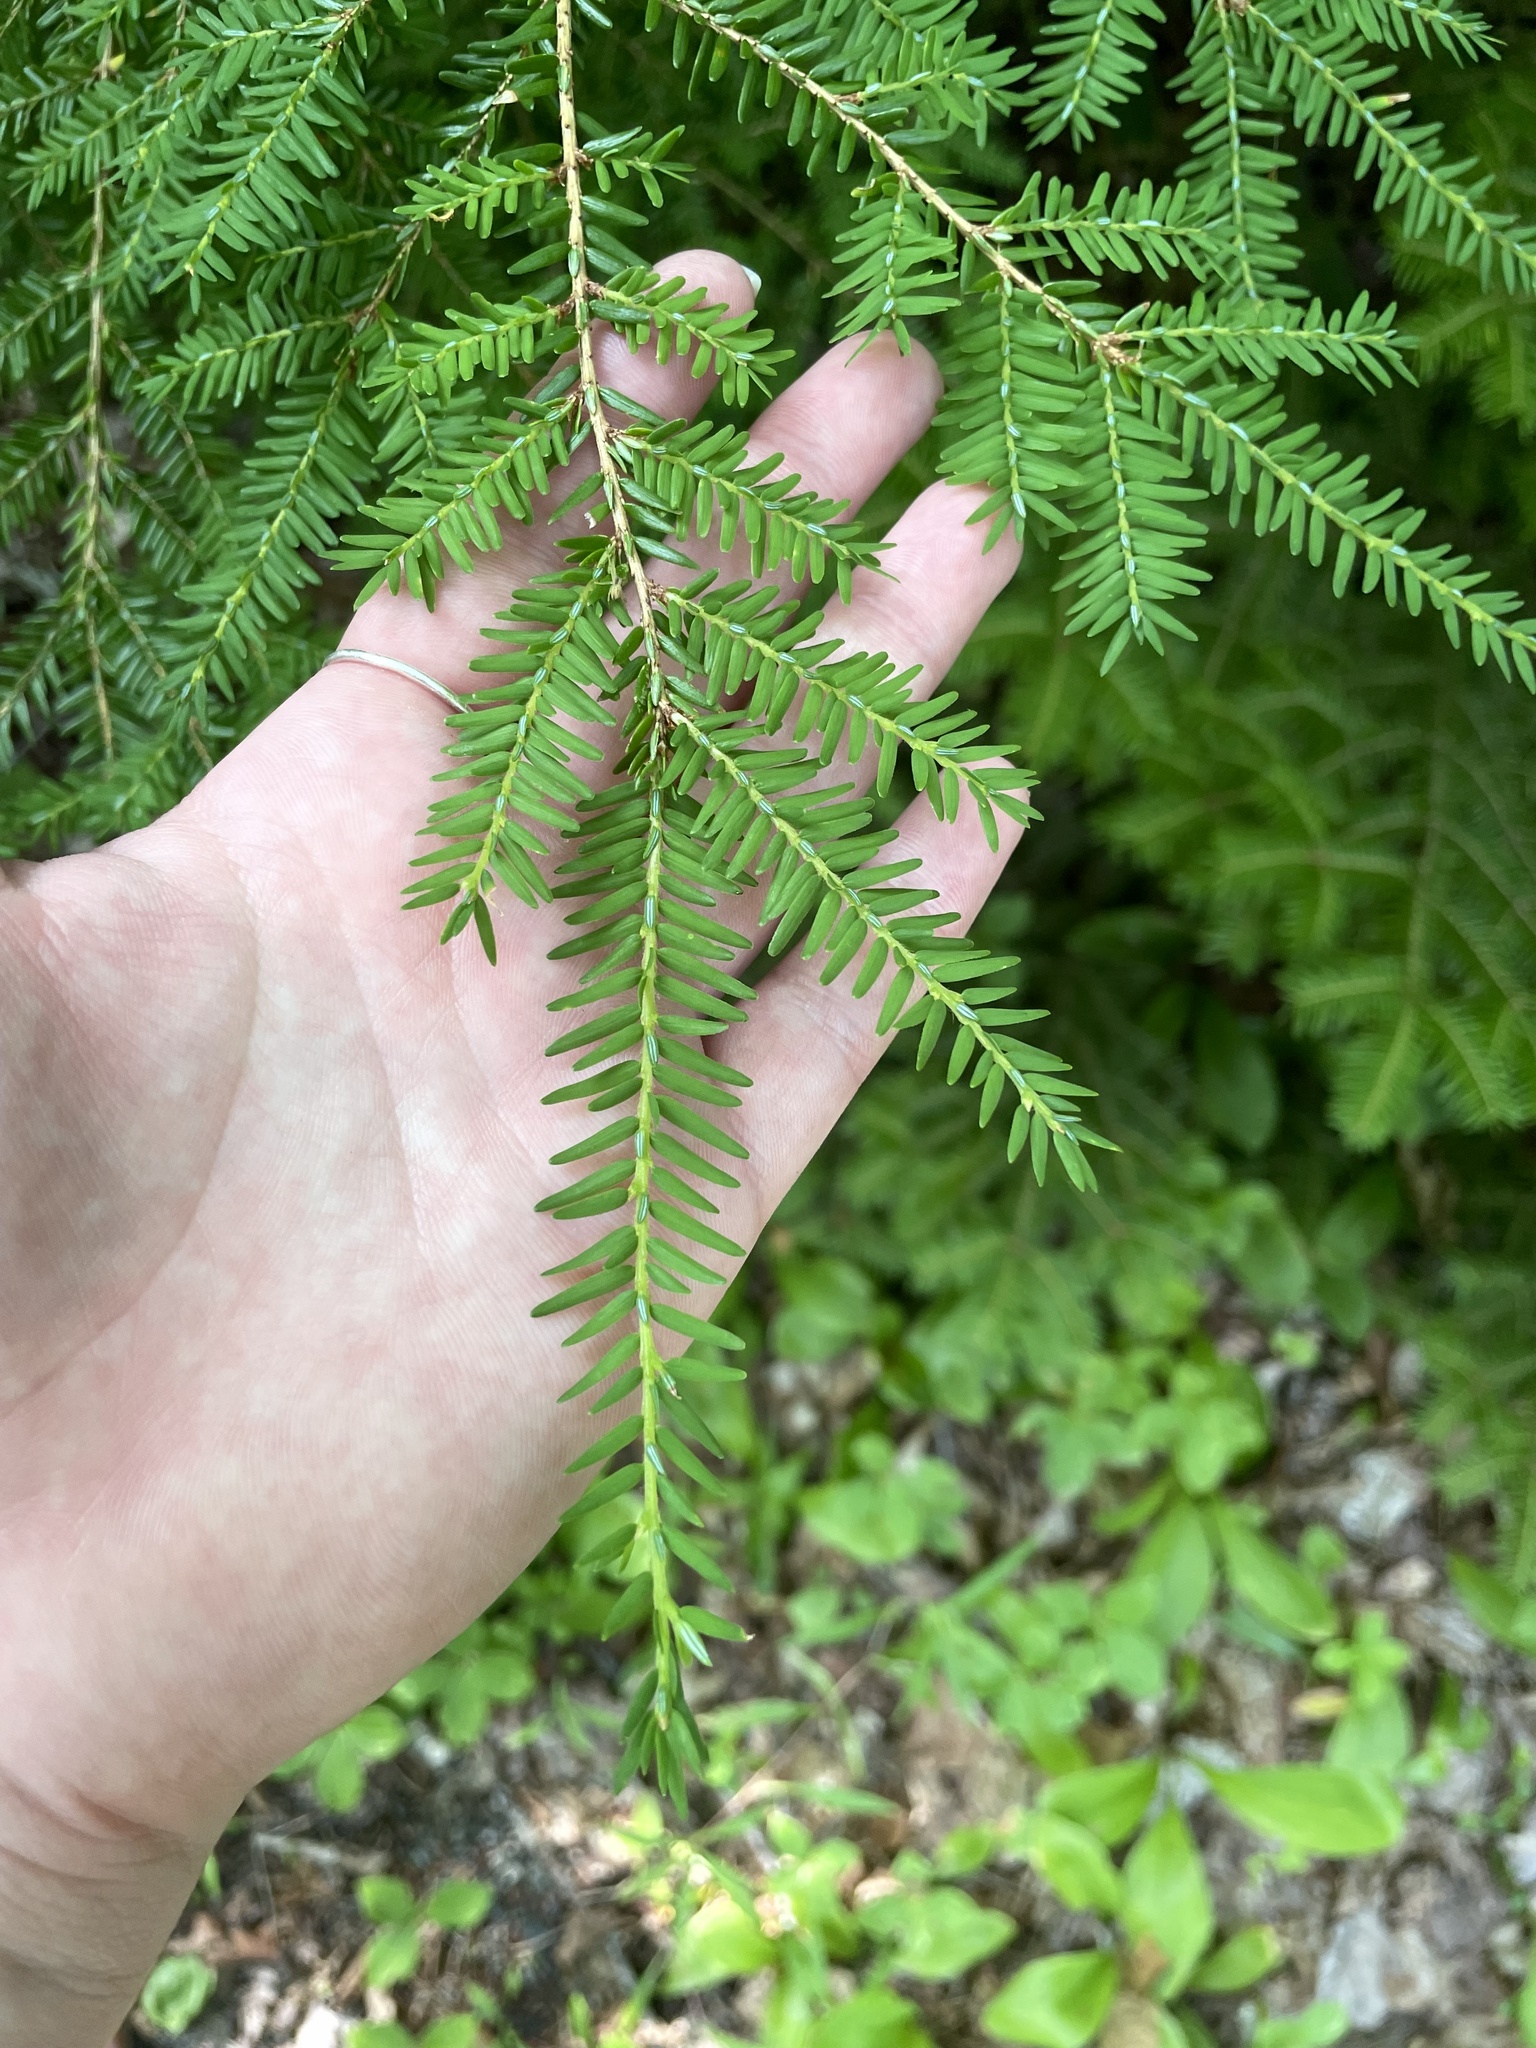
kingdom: Plantae
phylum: Tracheophyta
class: Pinopsida
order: Pinales
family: Pinaceae
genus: Tsuga
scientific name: Tsuga canadensis
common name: Eastern hemlock
